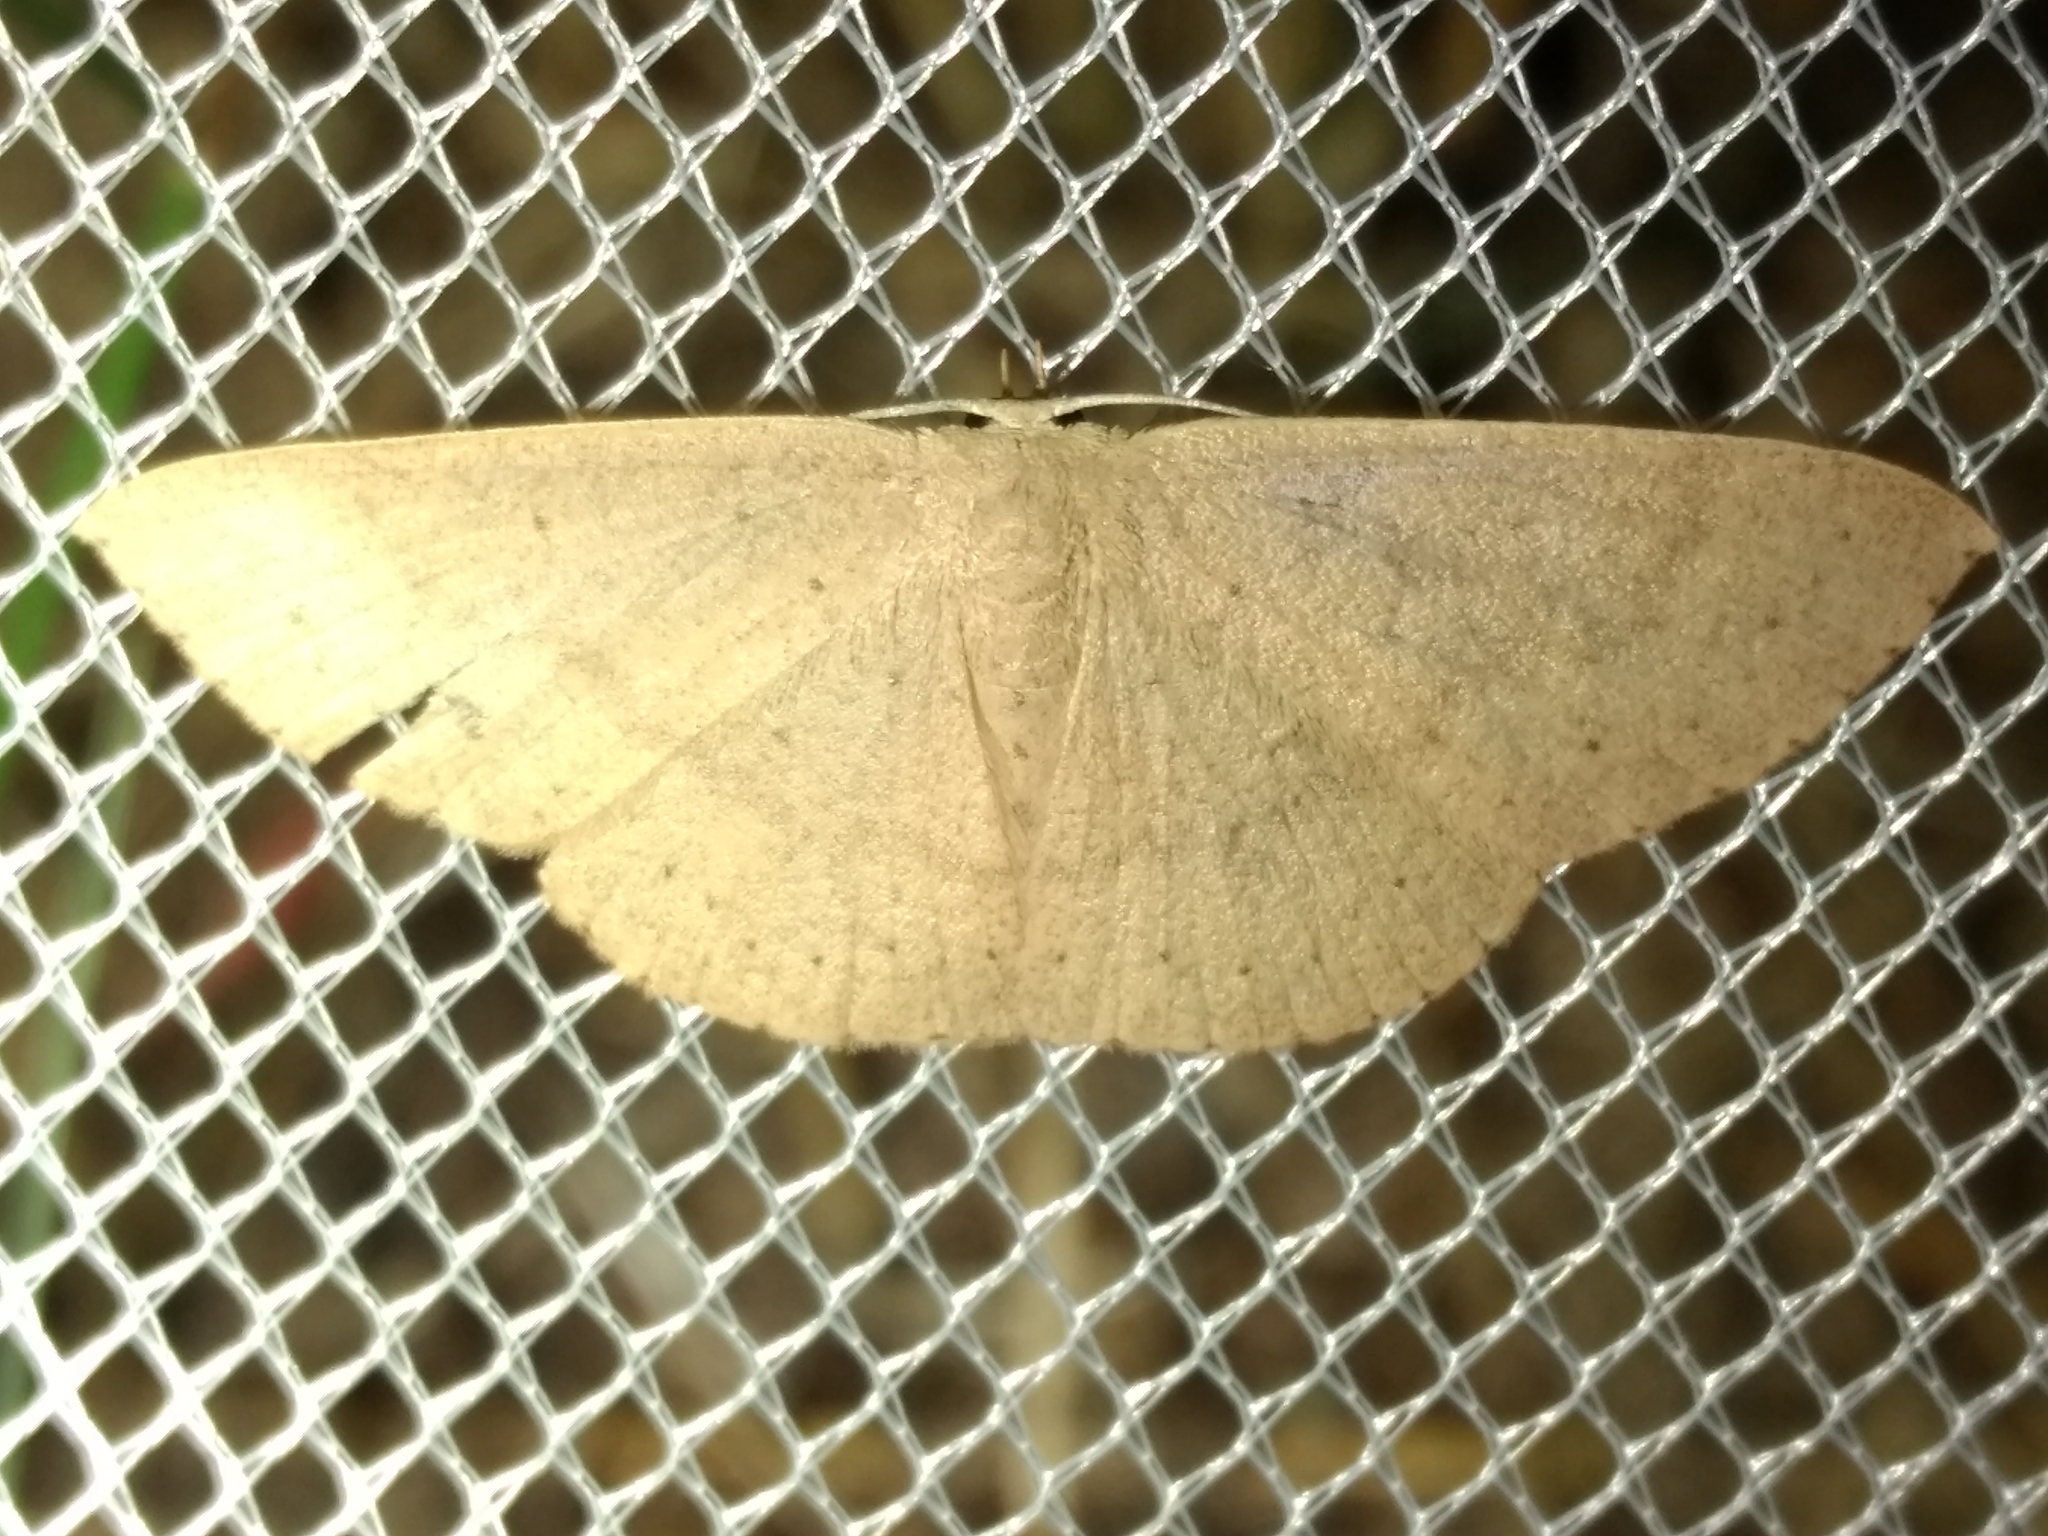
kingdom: Animalia
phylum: Arthropoda
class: Insecta
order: Lepidoptera
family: Geometridae
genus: Cyclophora
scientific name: Cyclophora obstataria
